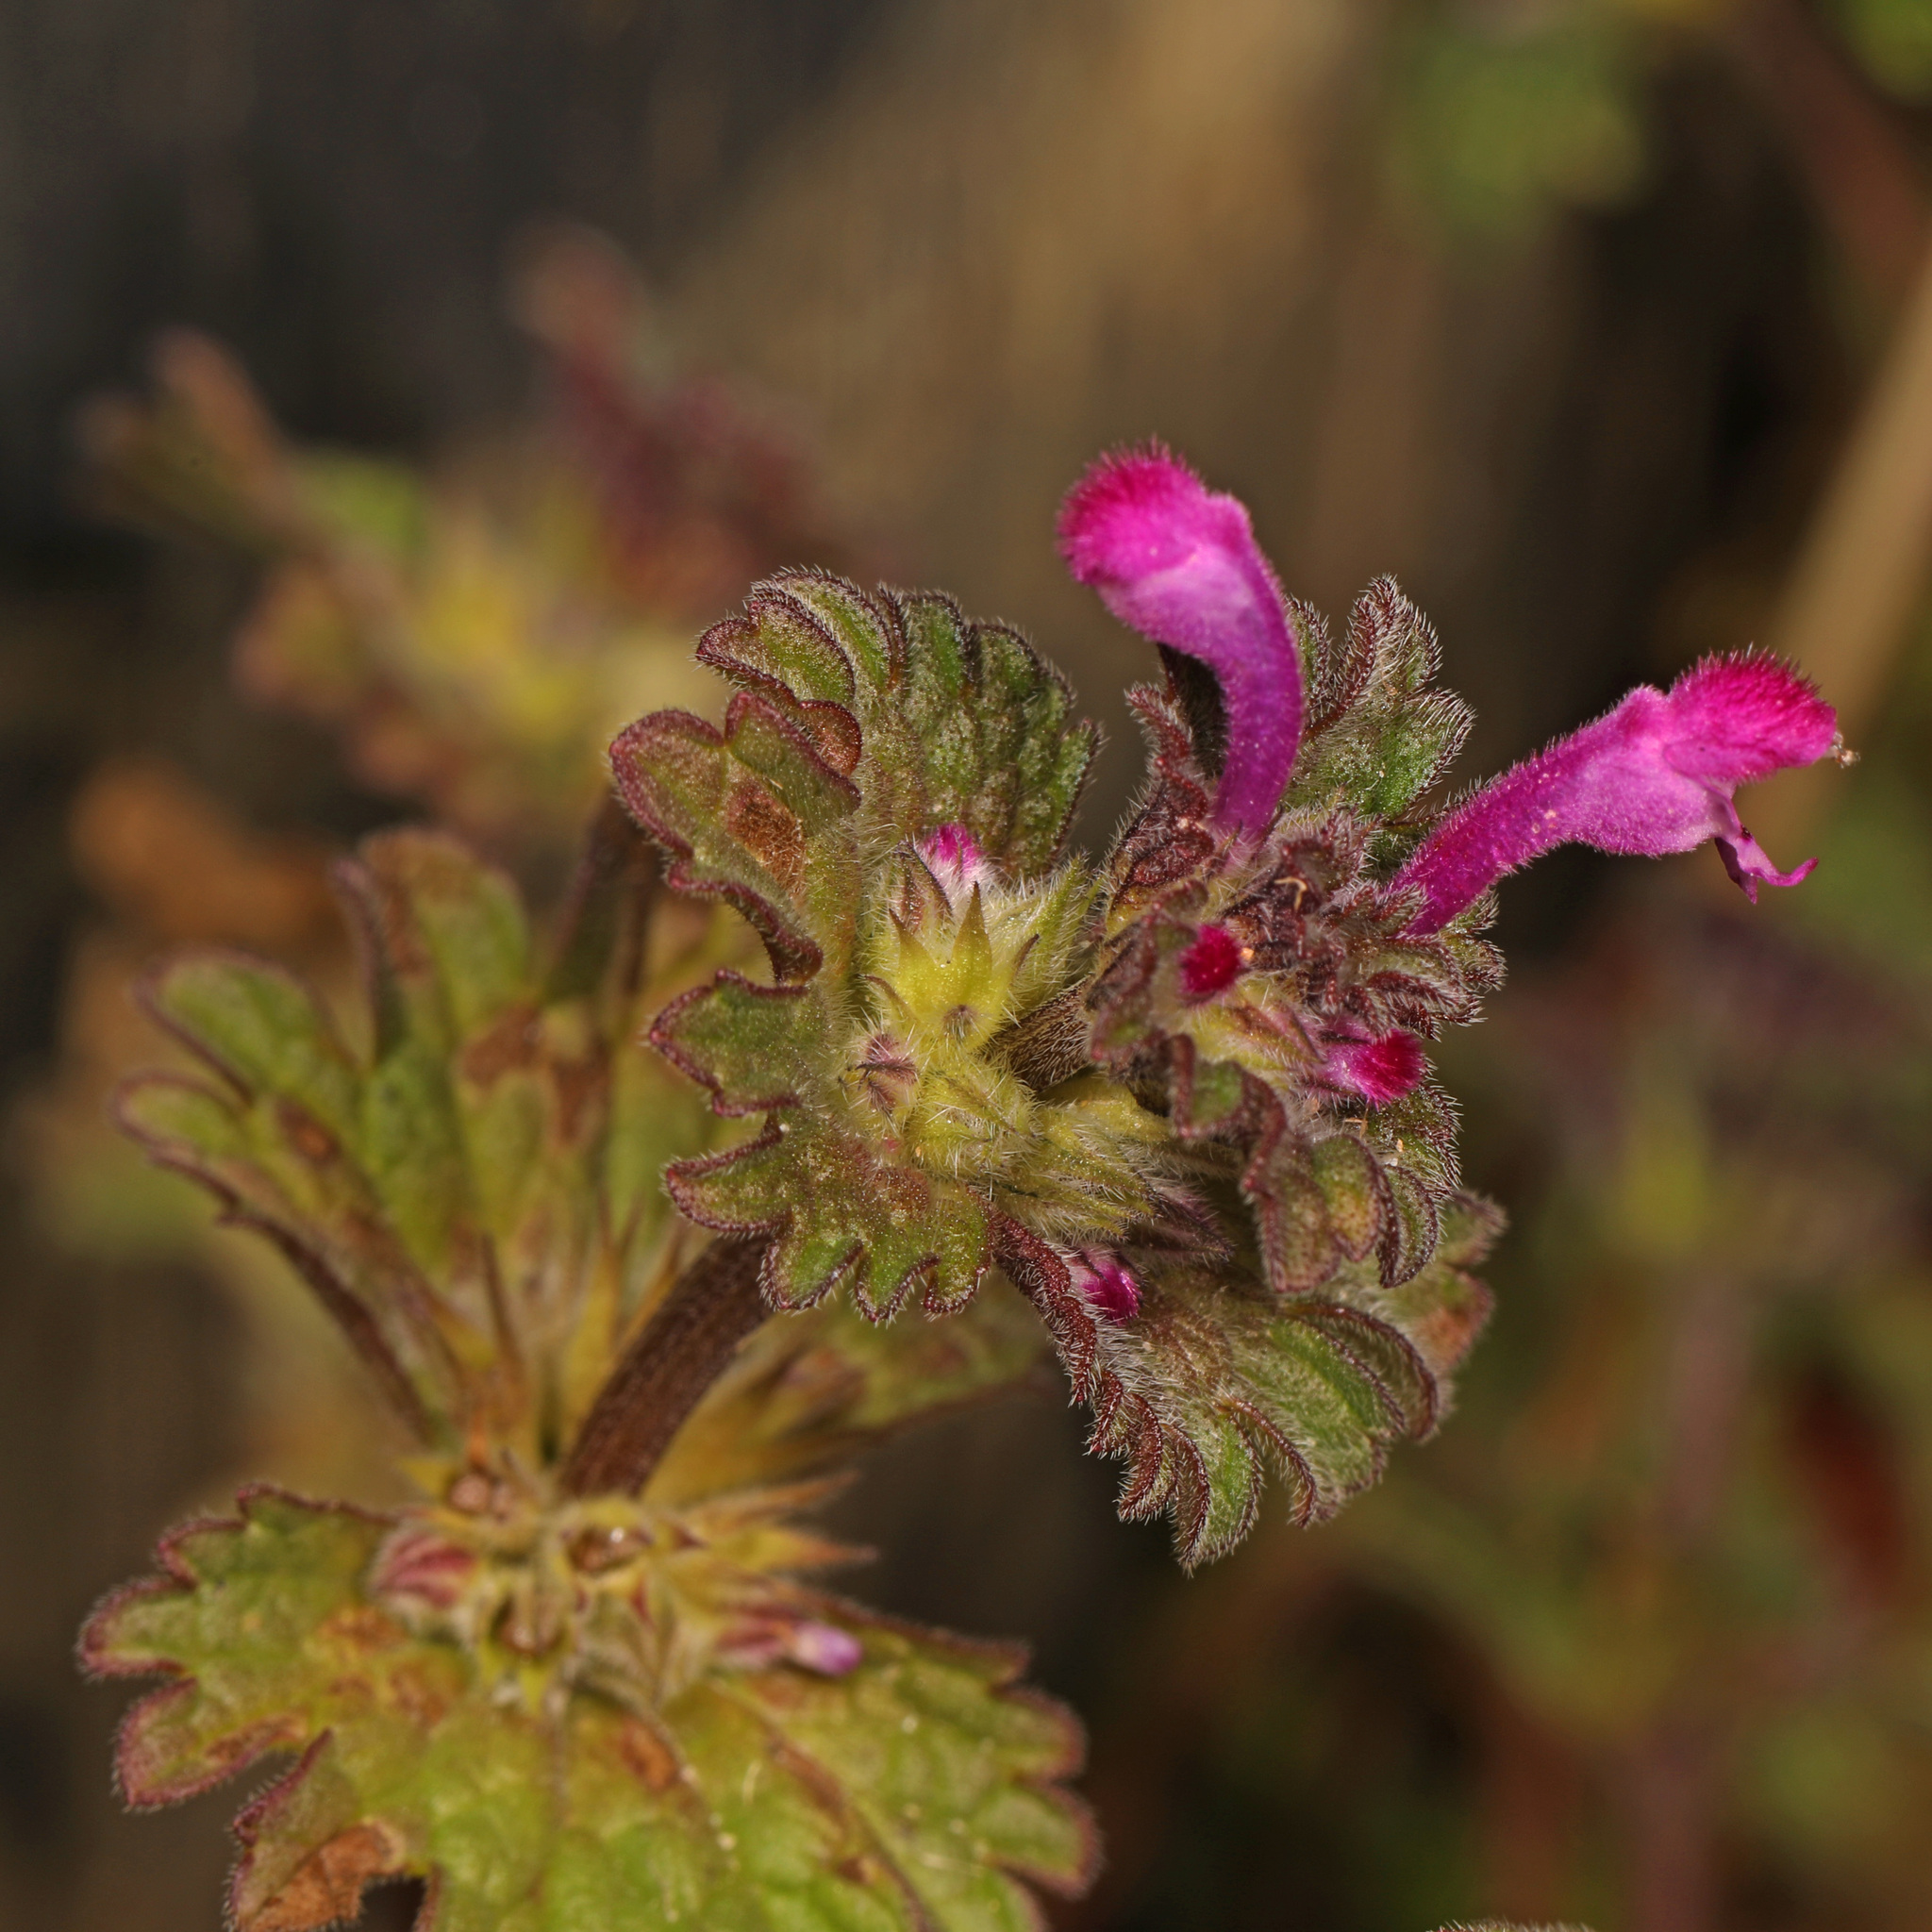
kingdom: Plantae
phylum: Tracheophyta
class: Magnoliopsida
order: Lamiales
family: Lamiaceae
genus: Lamium
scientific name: Lamium amplexicaule
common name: Henbit dead-nettle
